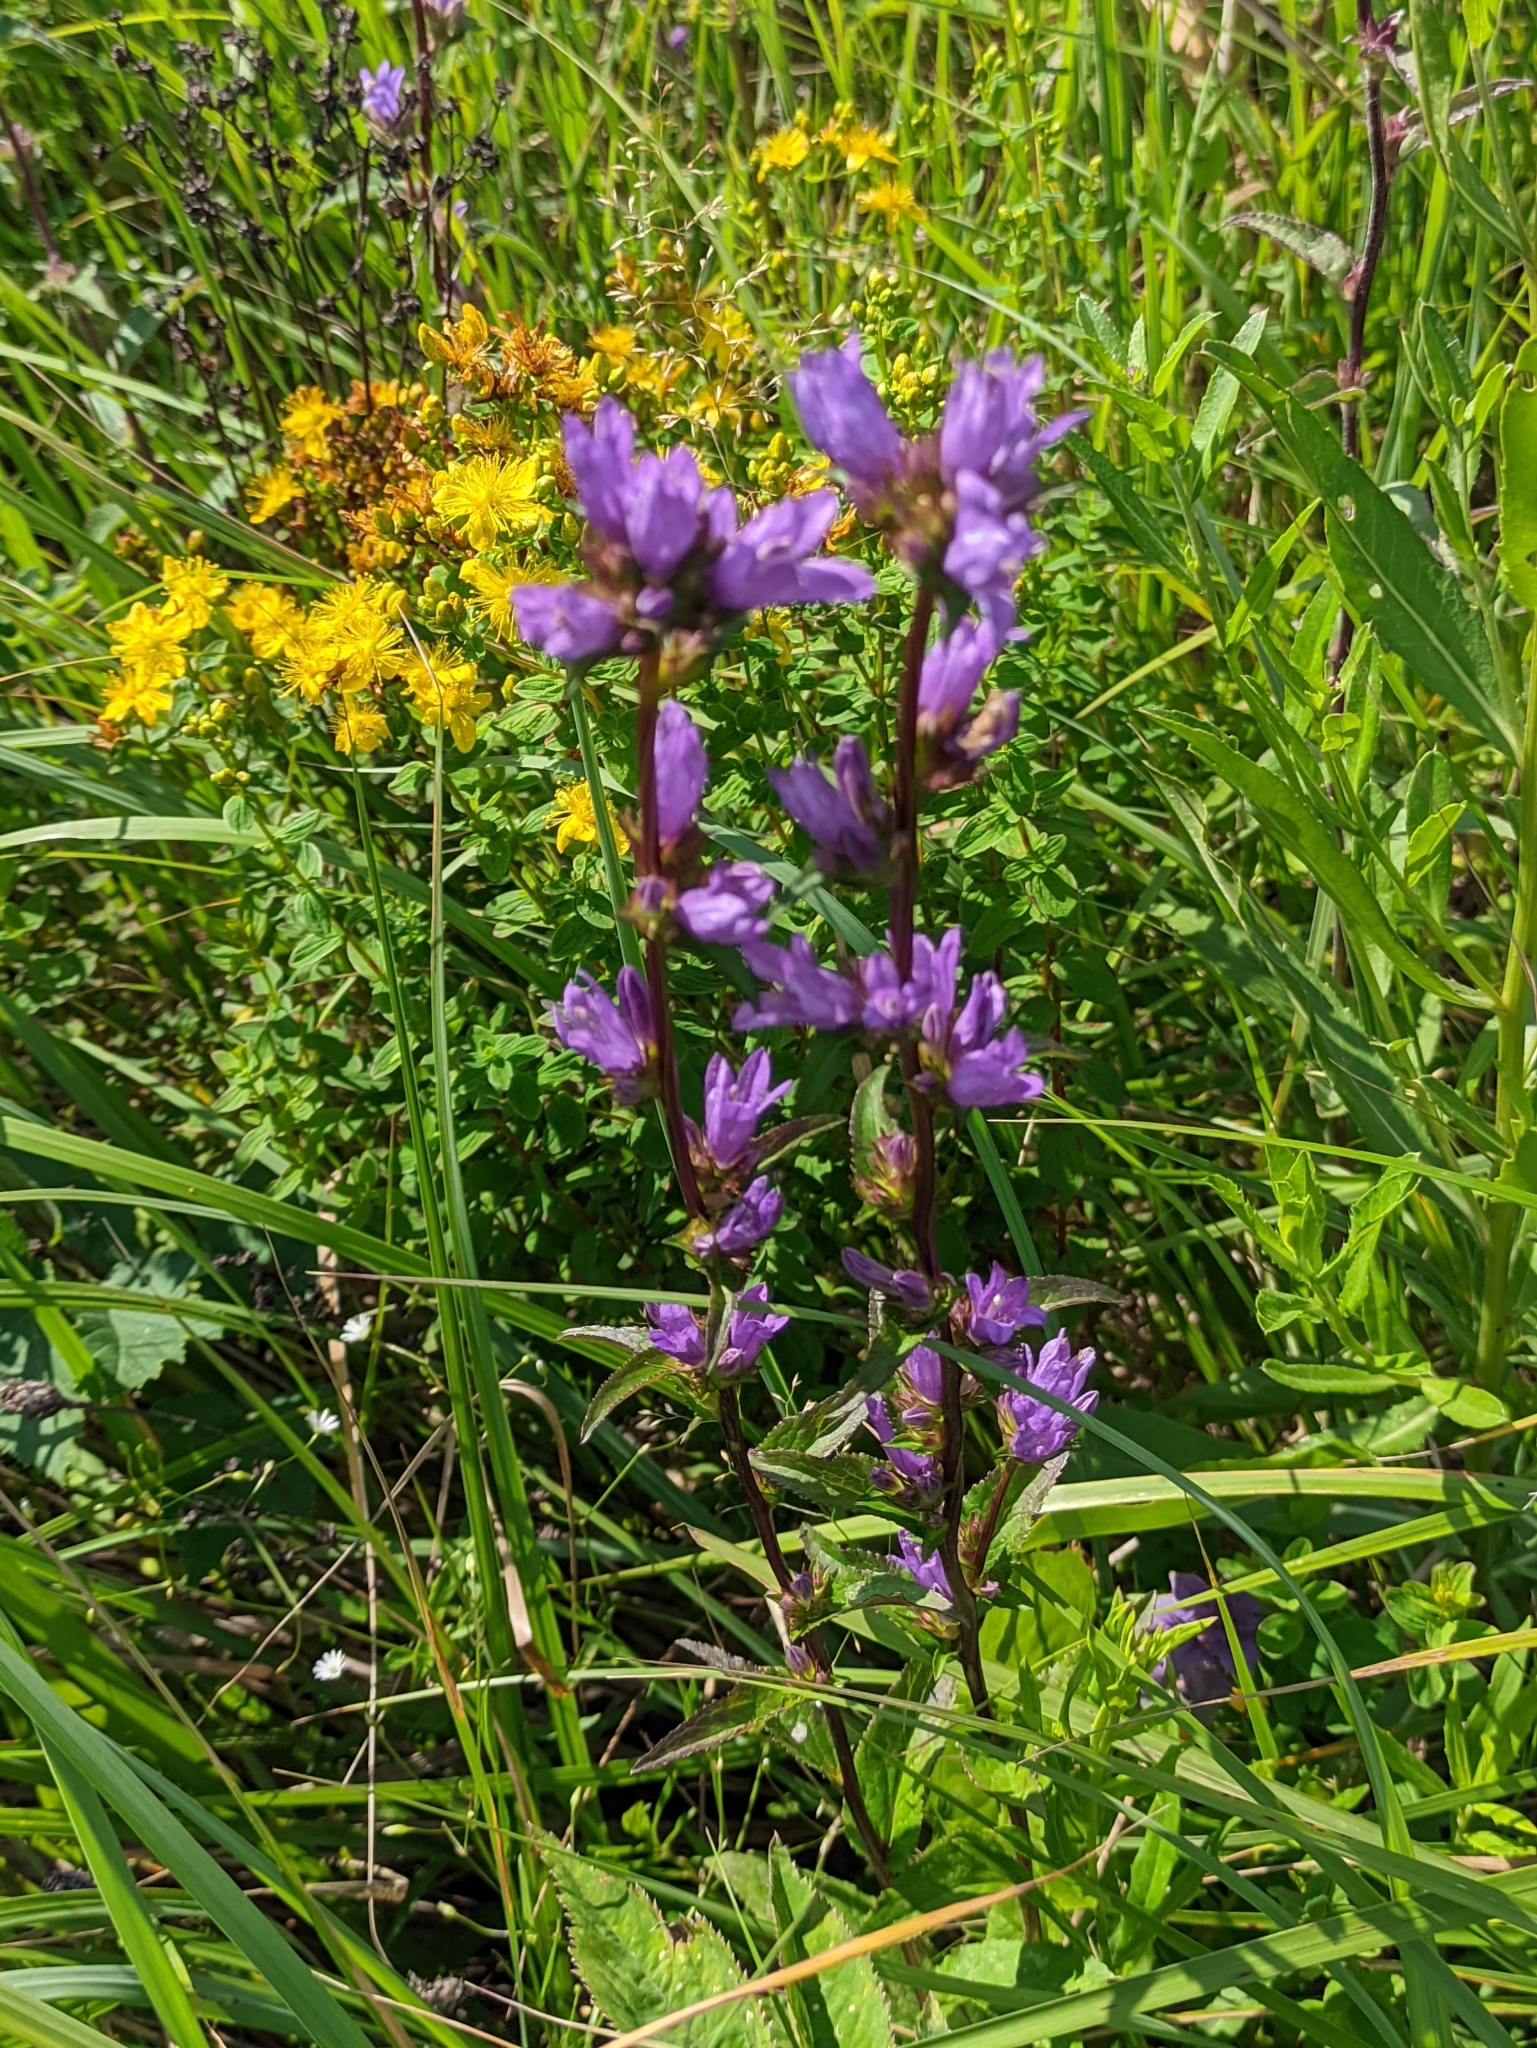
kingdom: Plantae
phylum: Tracheophyta
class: Magnoliopsida
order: Asterales
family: Campanulaceae
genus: Campanula
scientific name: Campanula glomerata
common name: Clustered bellflower
